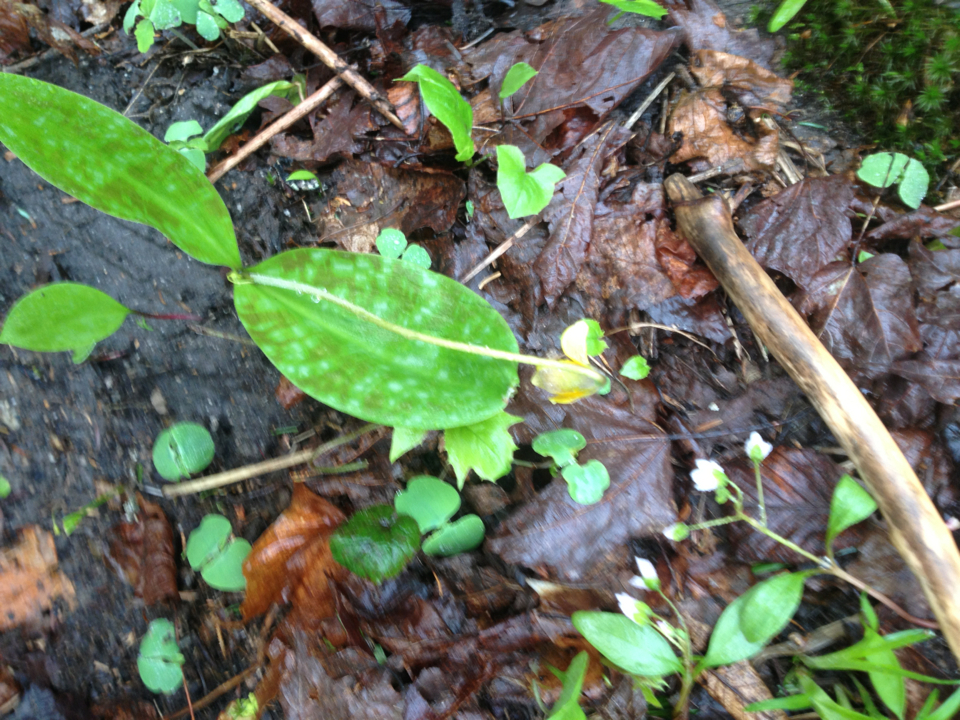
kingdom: Plantae
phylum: Tracheophyta
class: Liliopsida
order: Liliales
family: Liliaceae
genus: Erythronium
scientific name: Erythronium americanum
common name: Yellow adder's-tongue
